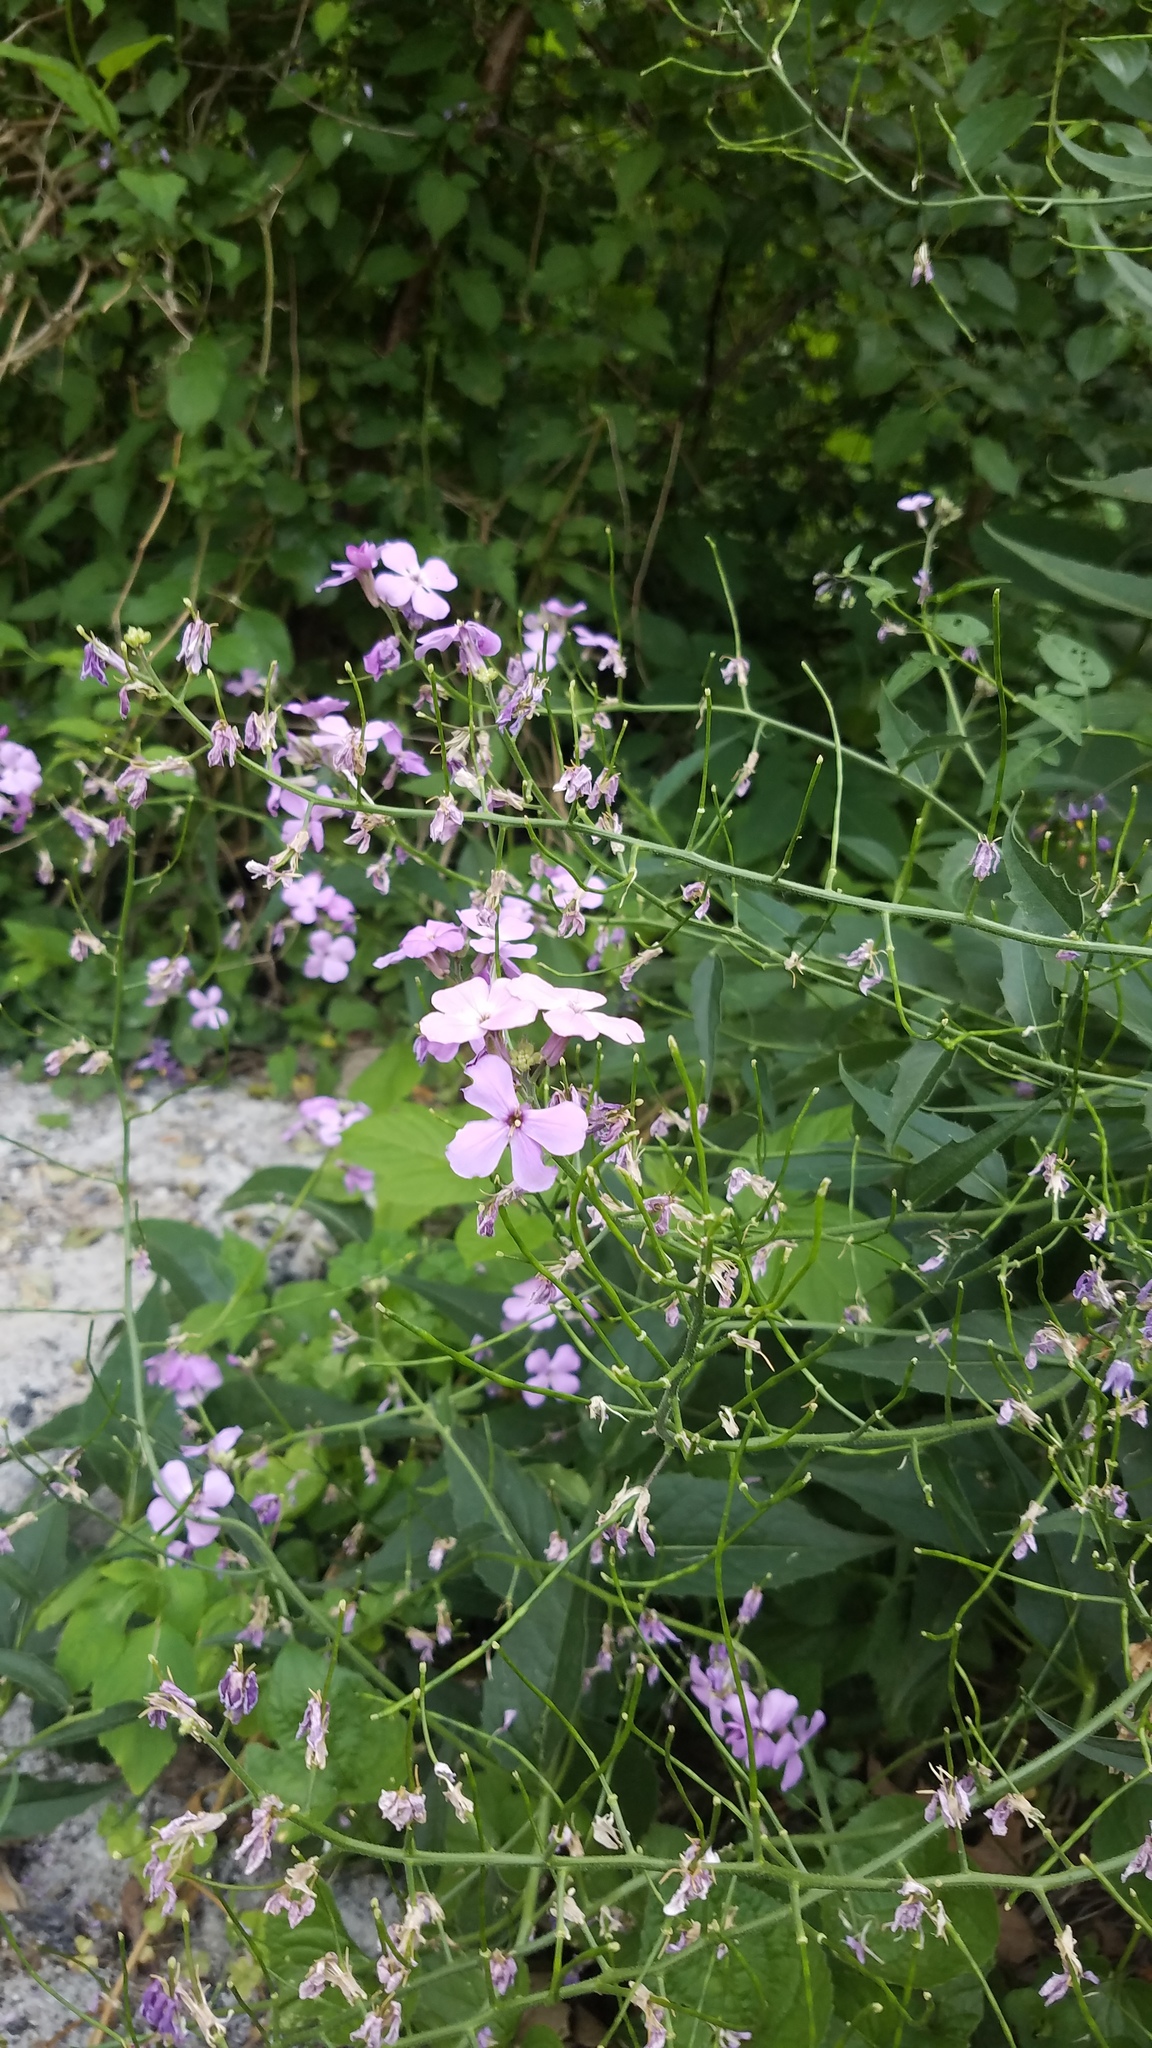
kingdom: Plantae
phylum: Tracheophyta
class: Magnoliopsida
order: Brassicales
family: Brassicaceae
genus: Hesperis
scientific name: Hesperis matronalis
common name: Dame's-violet
